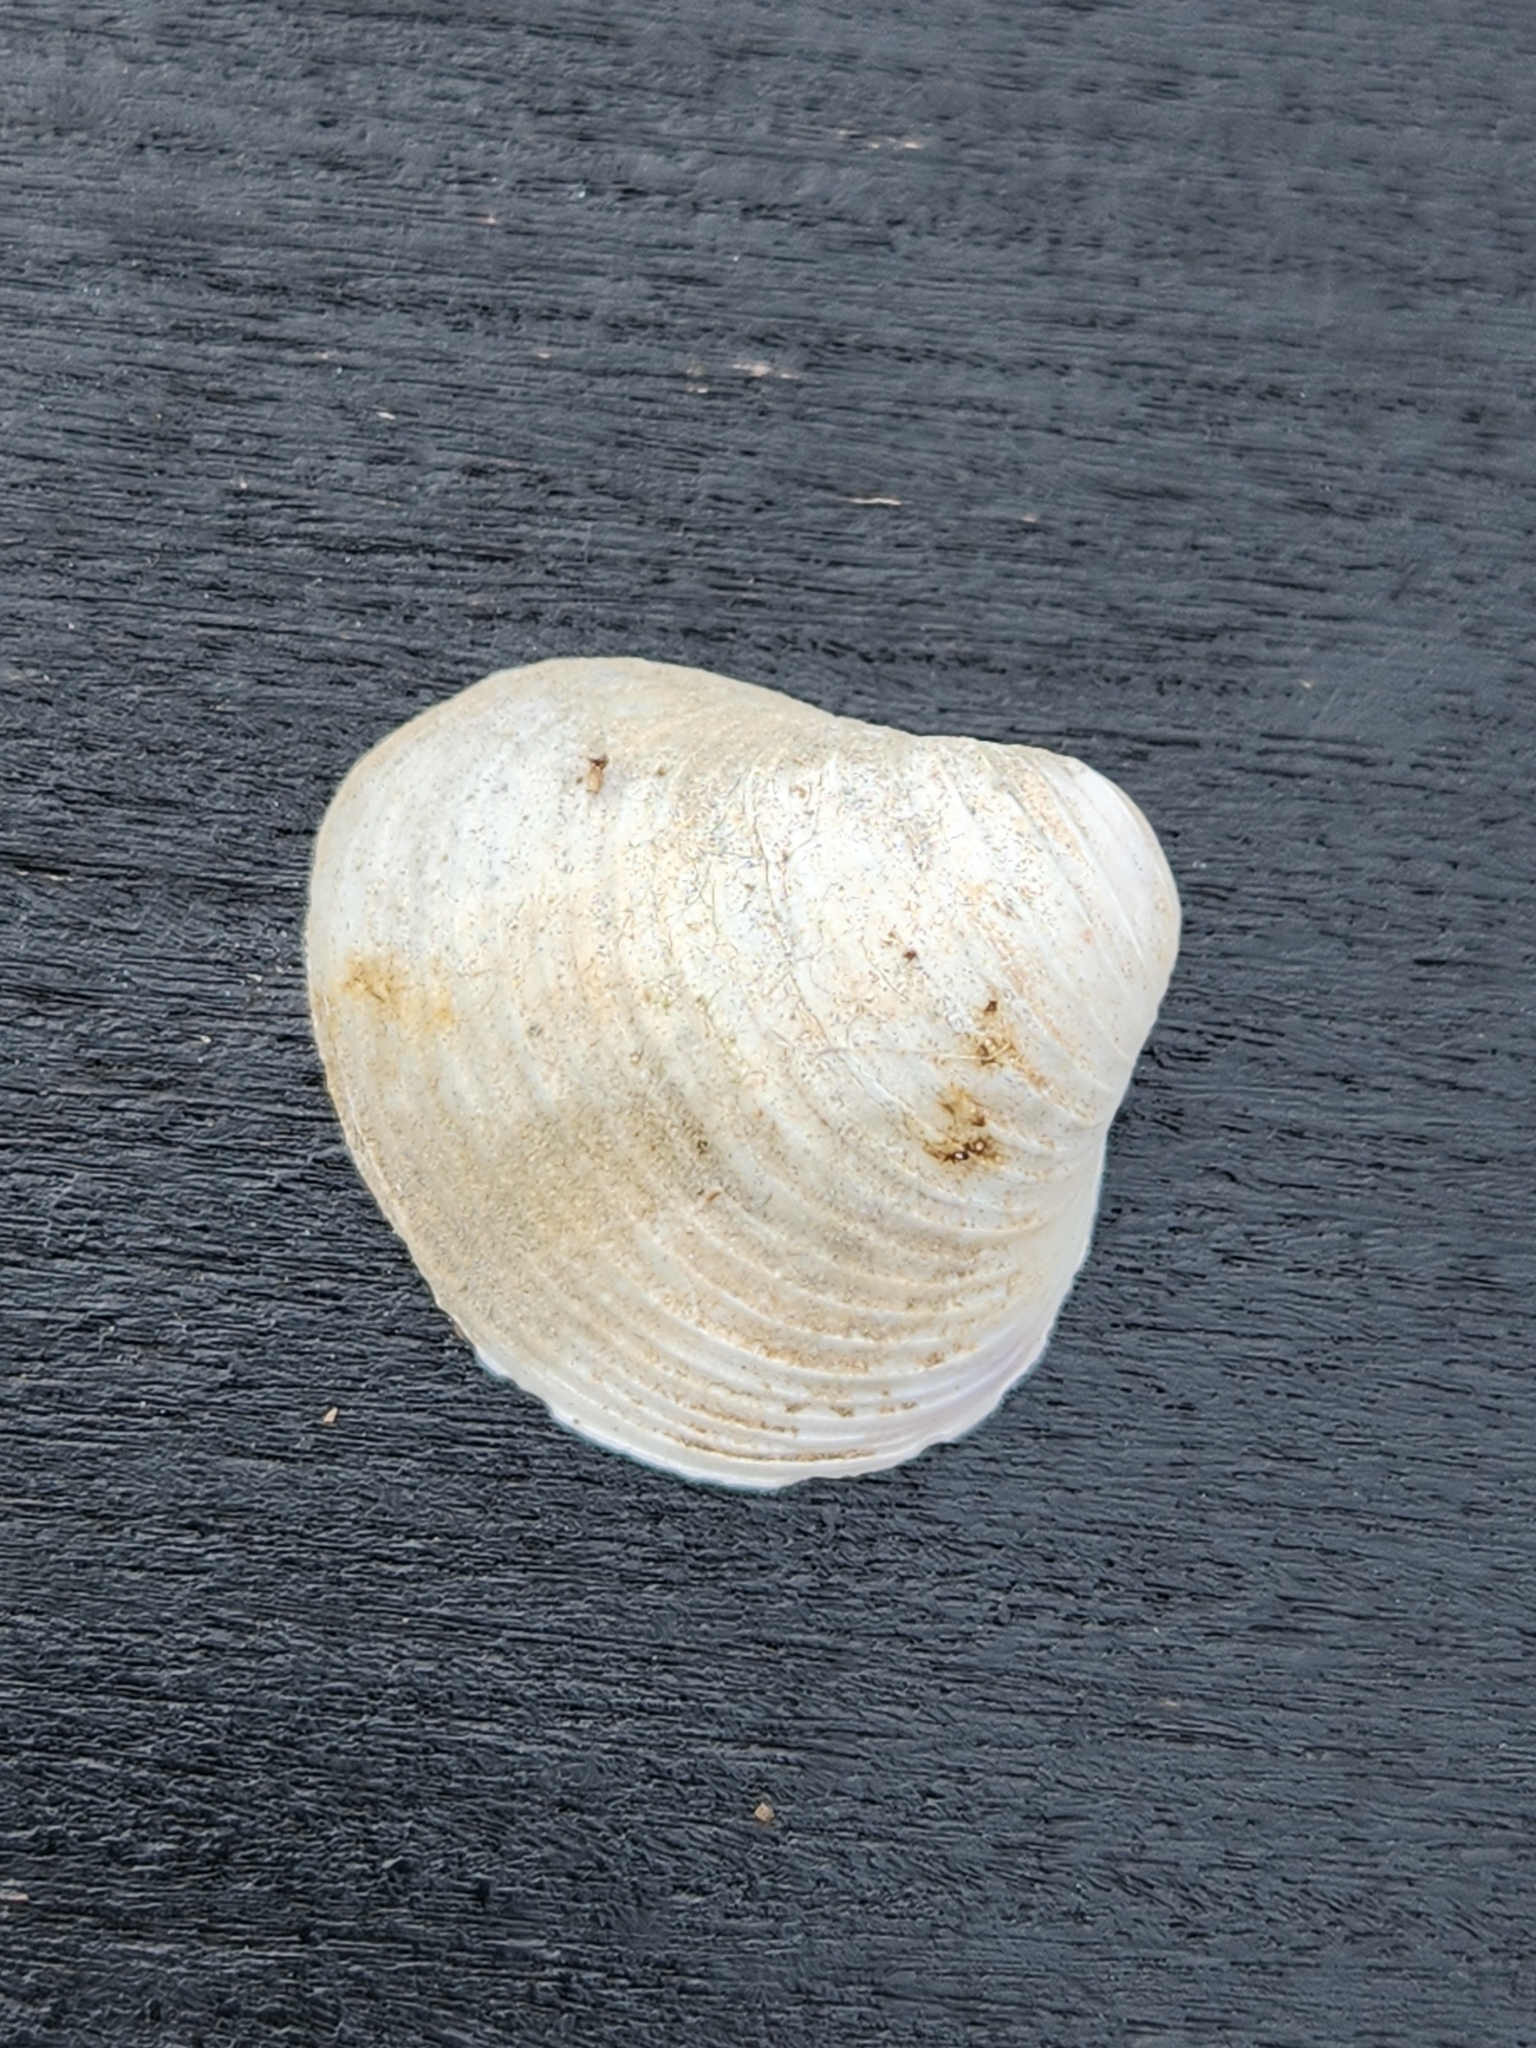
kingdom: Animalia
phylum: Mollusca
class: Bivalvia
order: Venerida
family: Cyrenidae
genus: Corbicula
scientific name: Corbicula fluminea
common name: Asian clam
